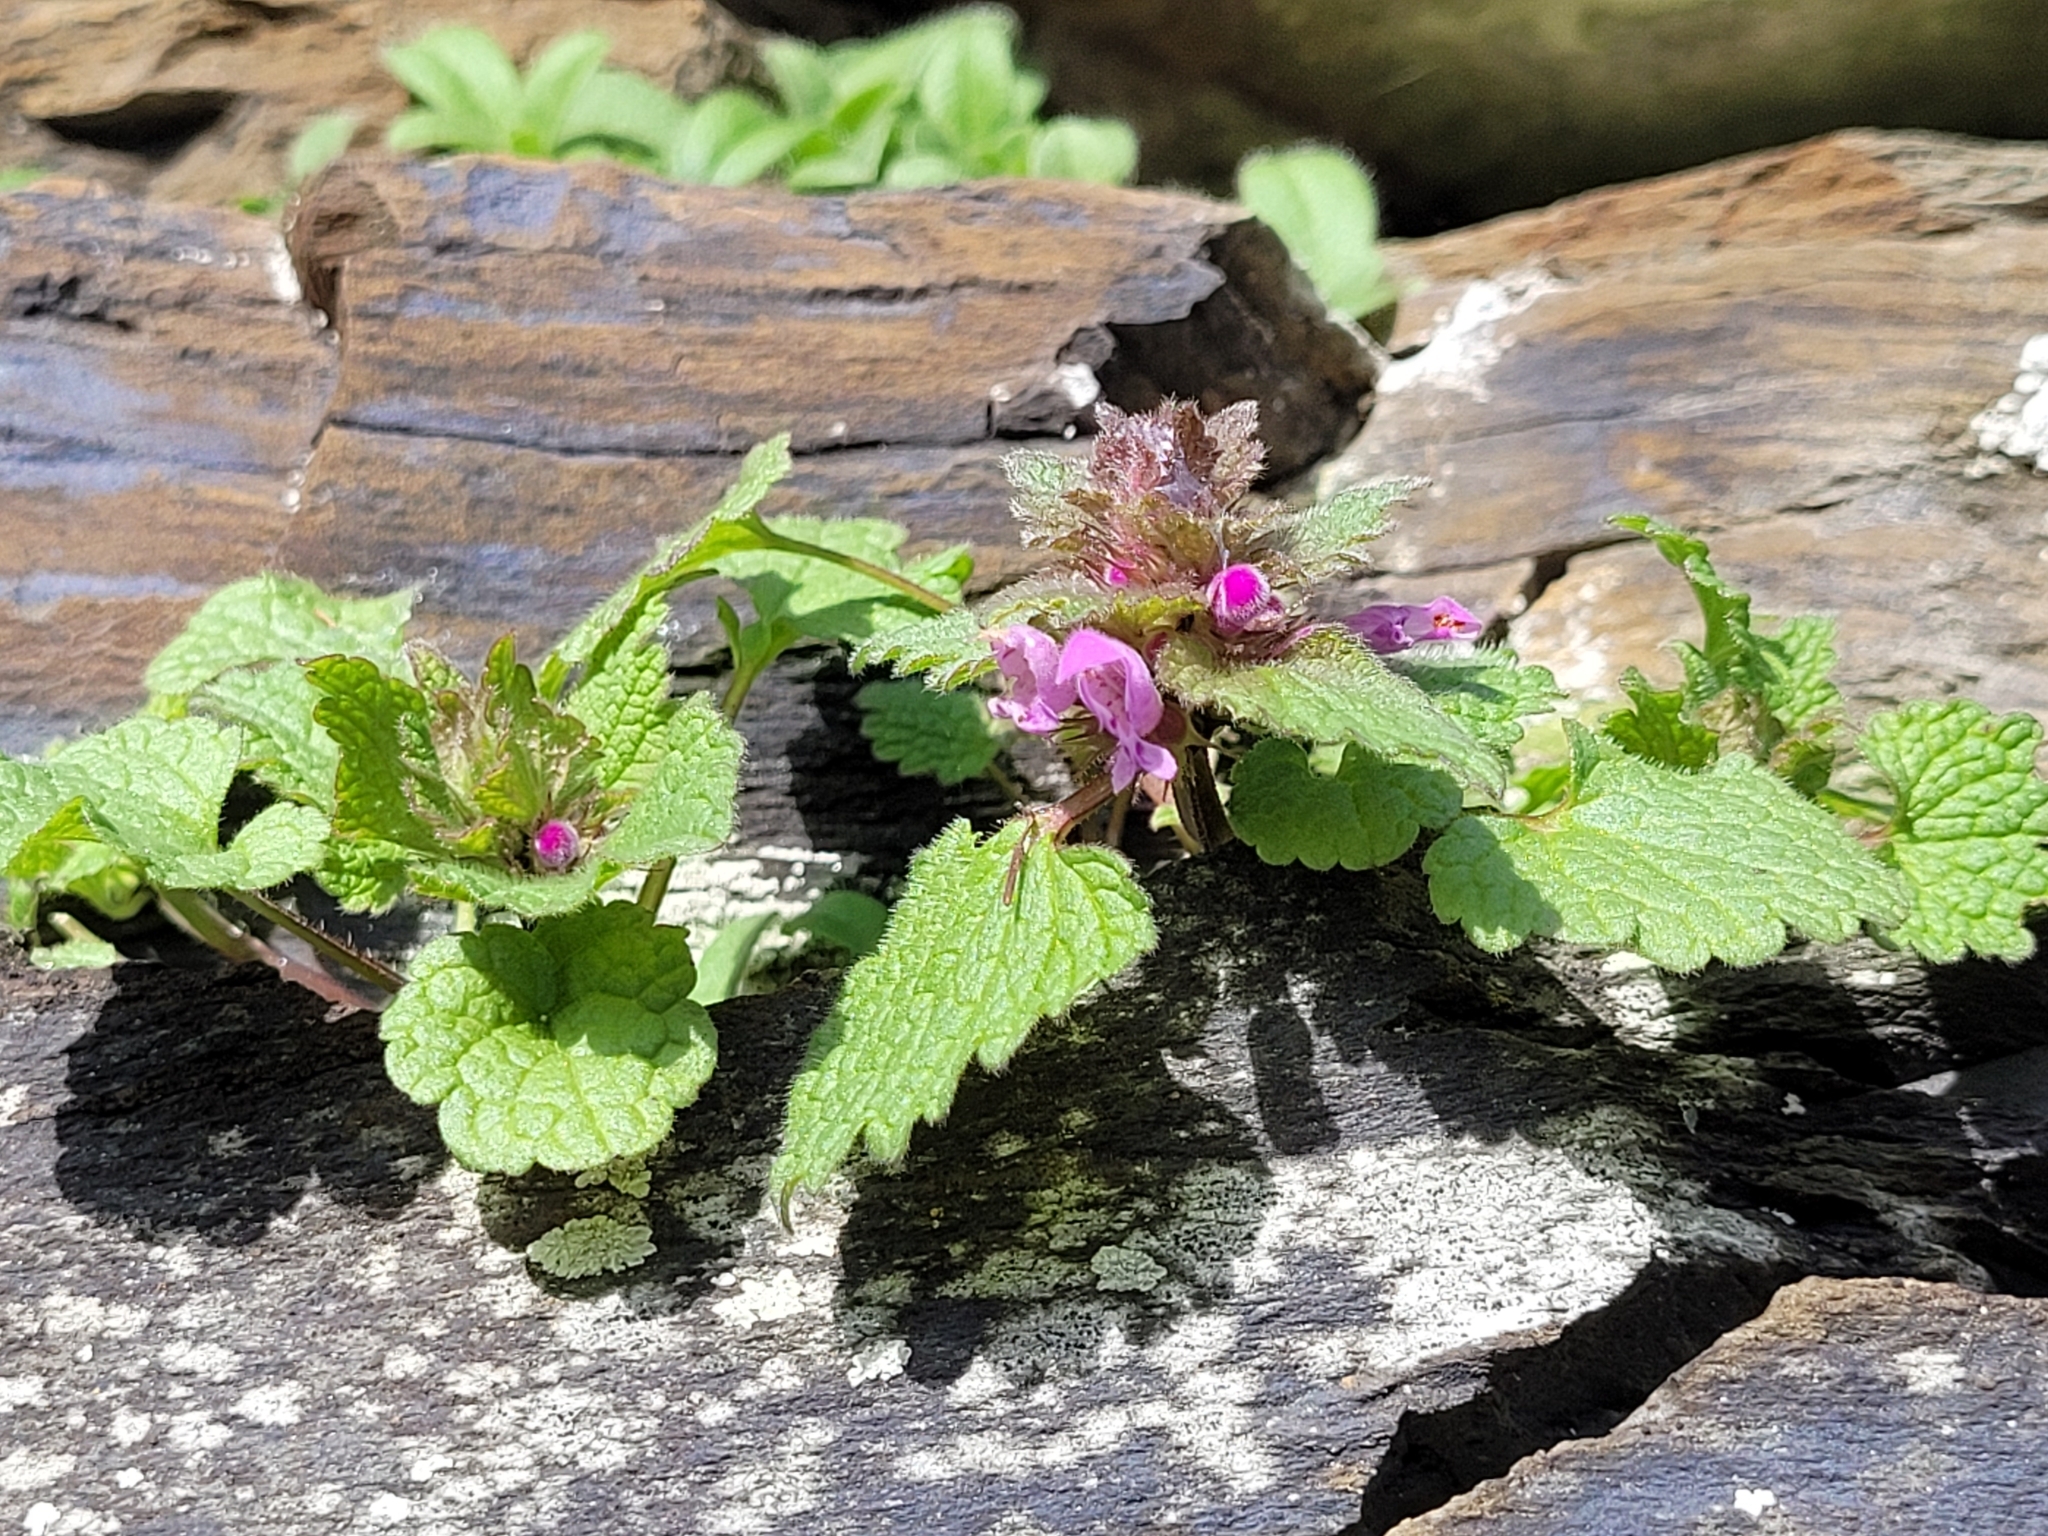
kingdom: Plantae
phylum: Tracheophyta
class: Magnoliopsida
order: Lamiales
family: Lamiaceae
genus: Lamium
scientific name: Lamium purpureum
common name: Red dead-nettle
